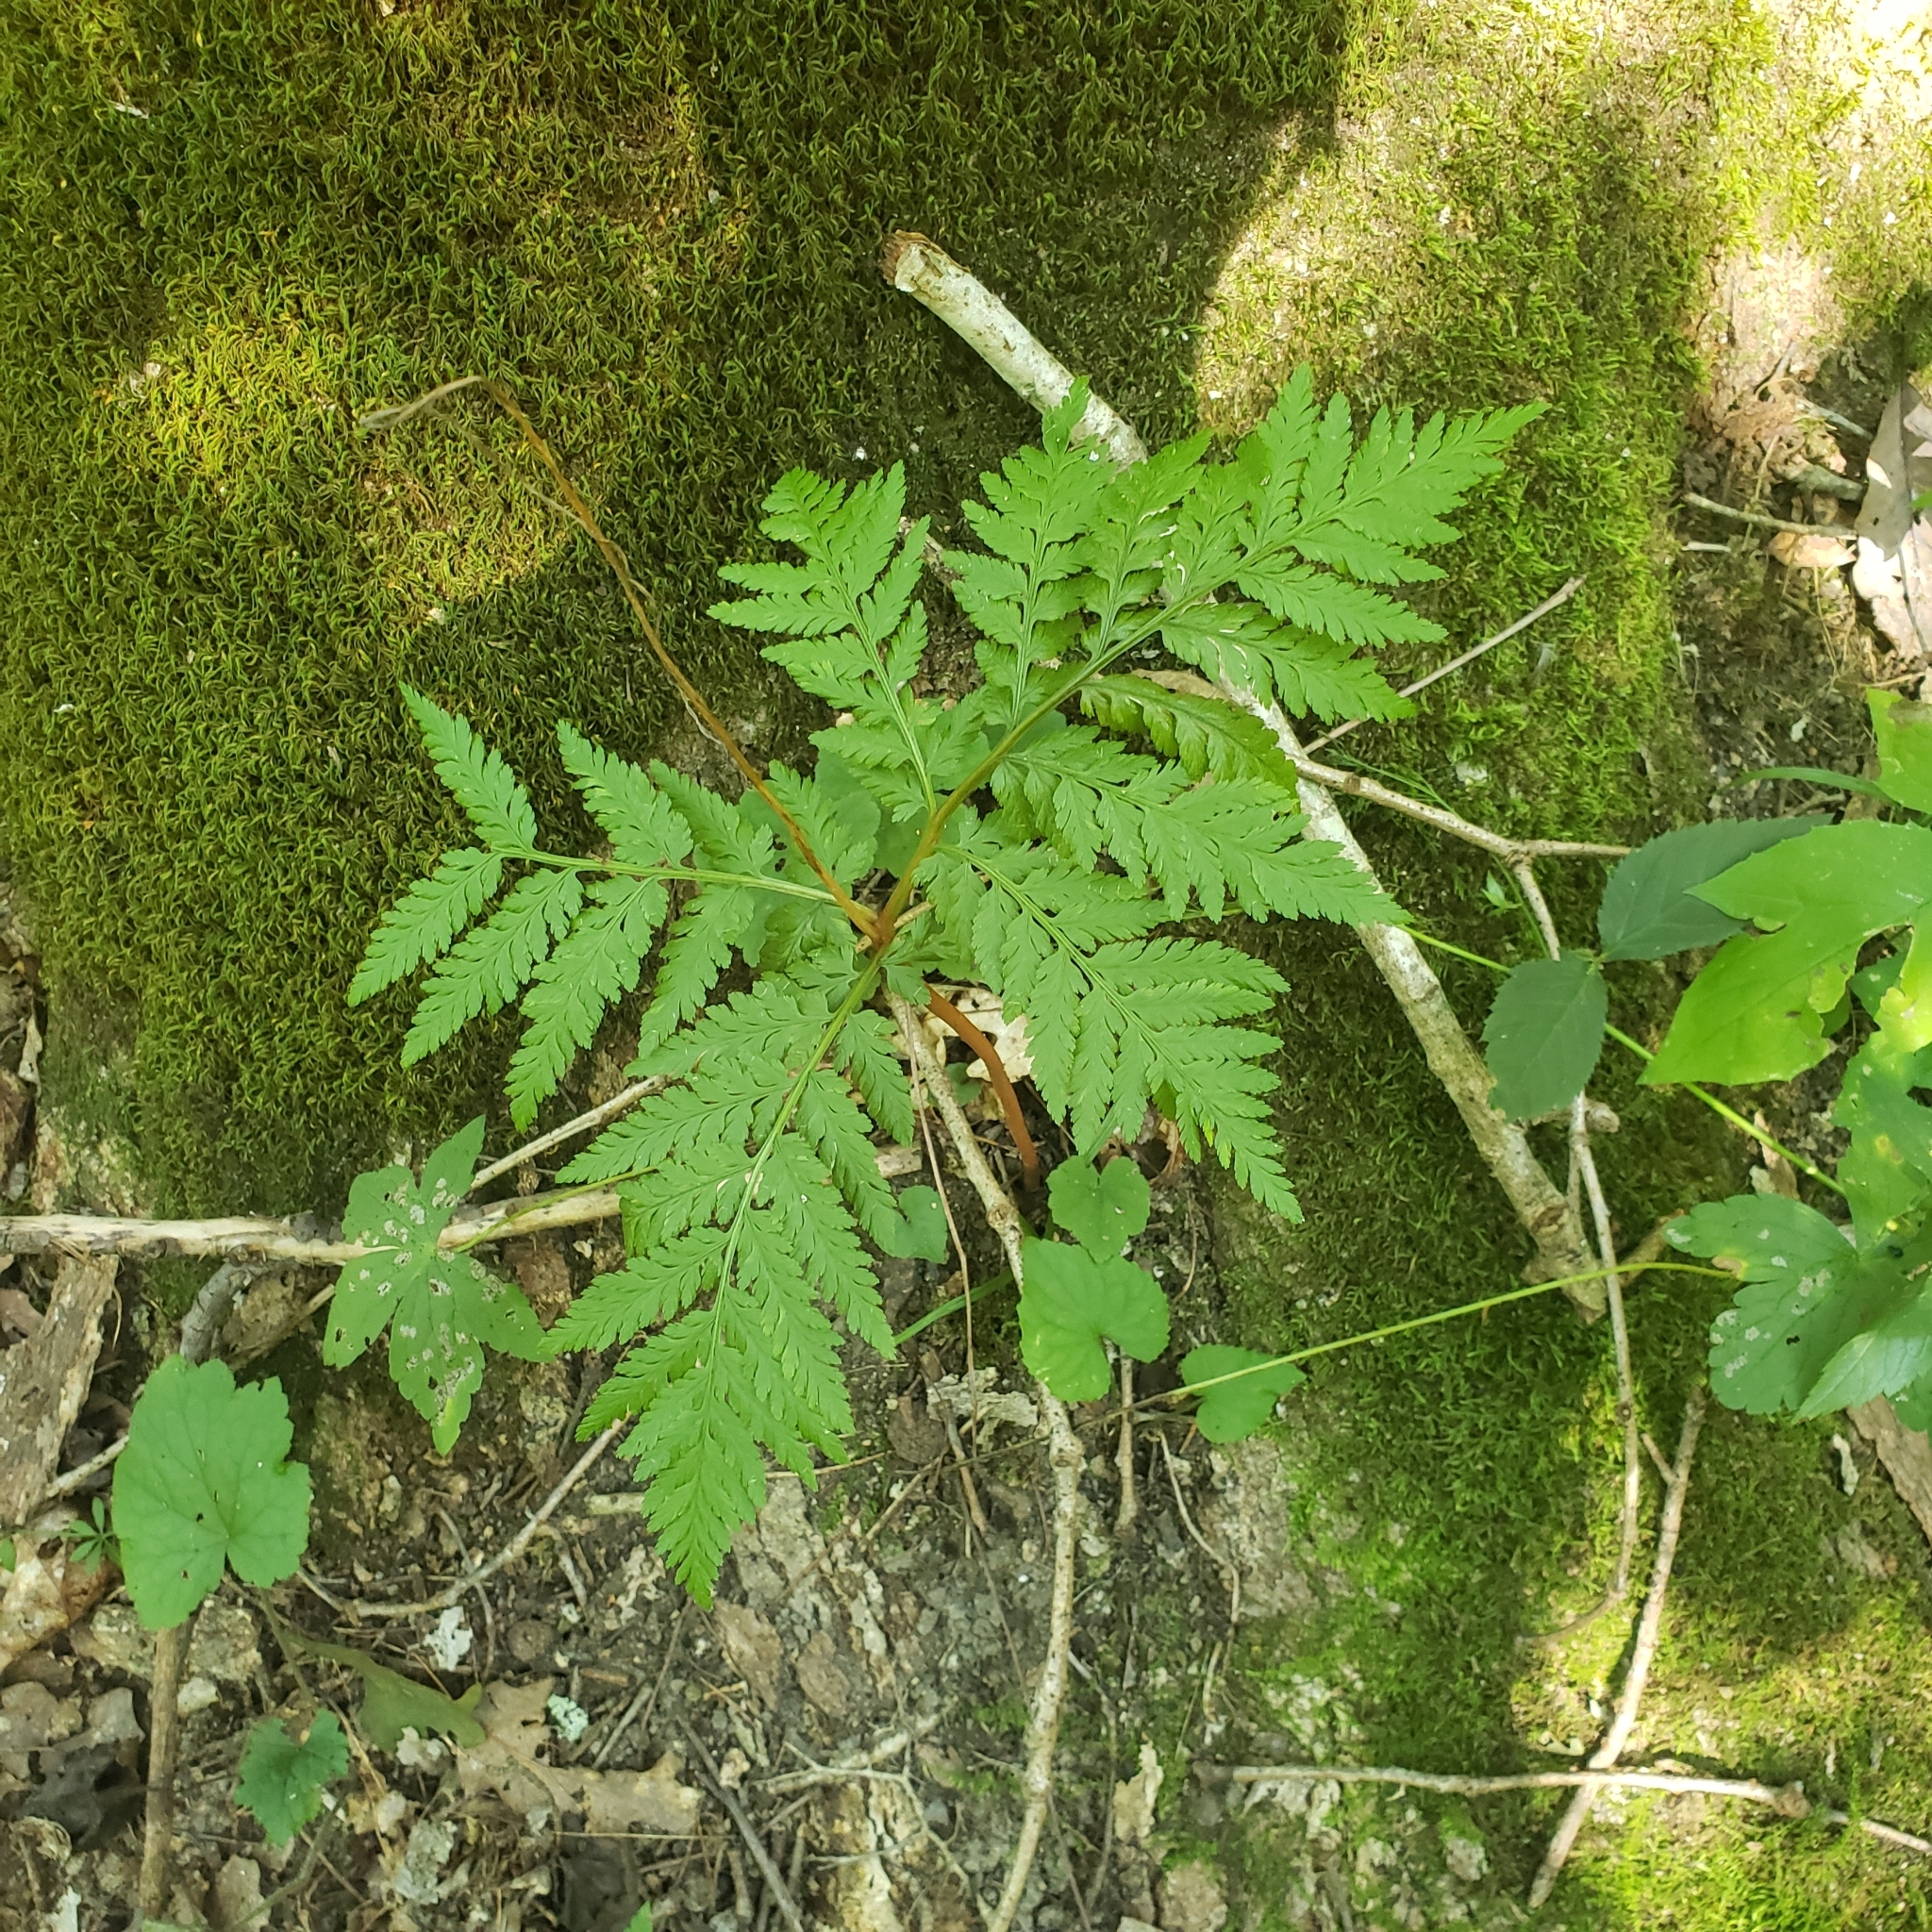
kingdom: Plantae
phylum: Tracheophyta
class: Polypodiopsida
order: Ophioglossales
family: Ophioglossaceae
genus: Botrypus
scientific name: Botrypus virginianus
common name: Common grapefern
